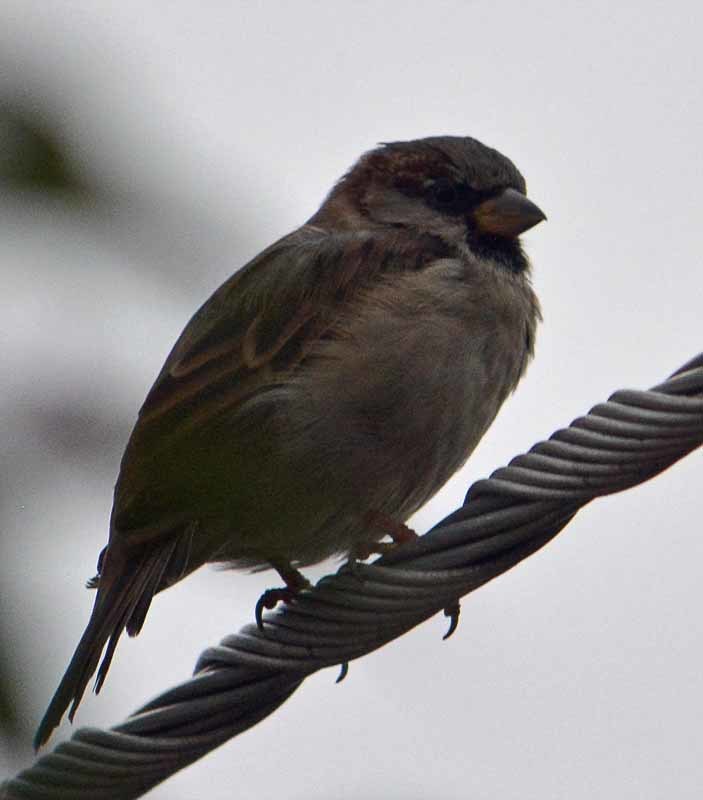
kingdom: Animalia
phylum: Chordata
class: Aves
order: Passeriformes
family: Passeridae
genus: Passer
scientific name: Passer domesticus
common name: House sparrow
